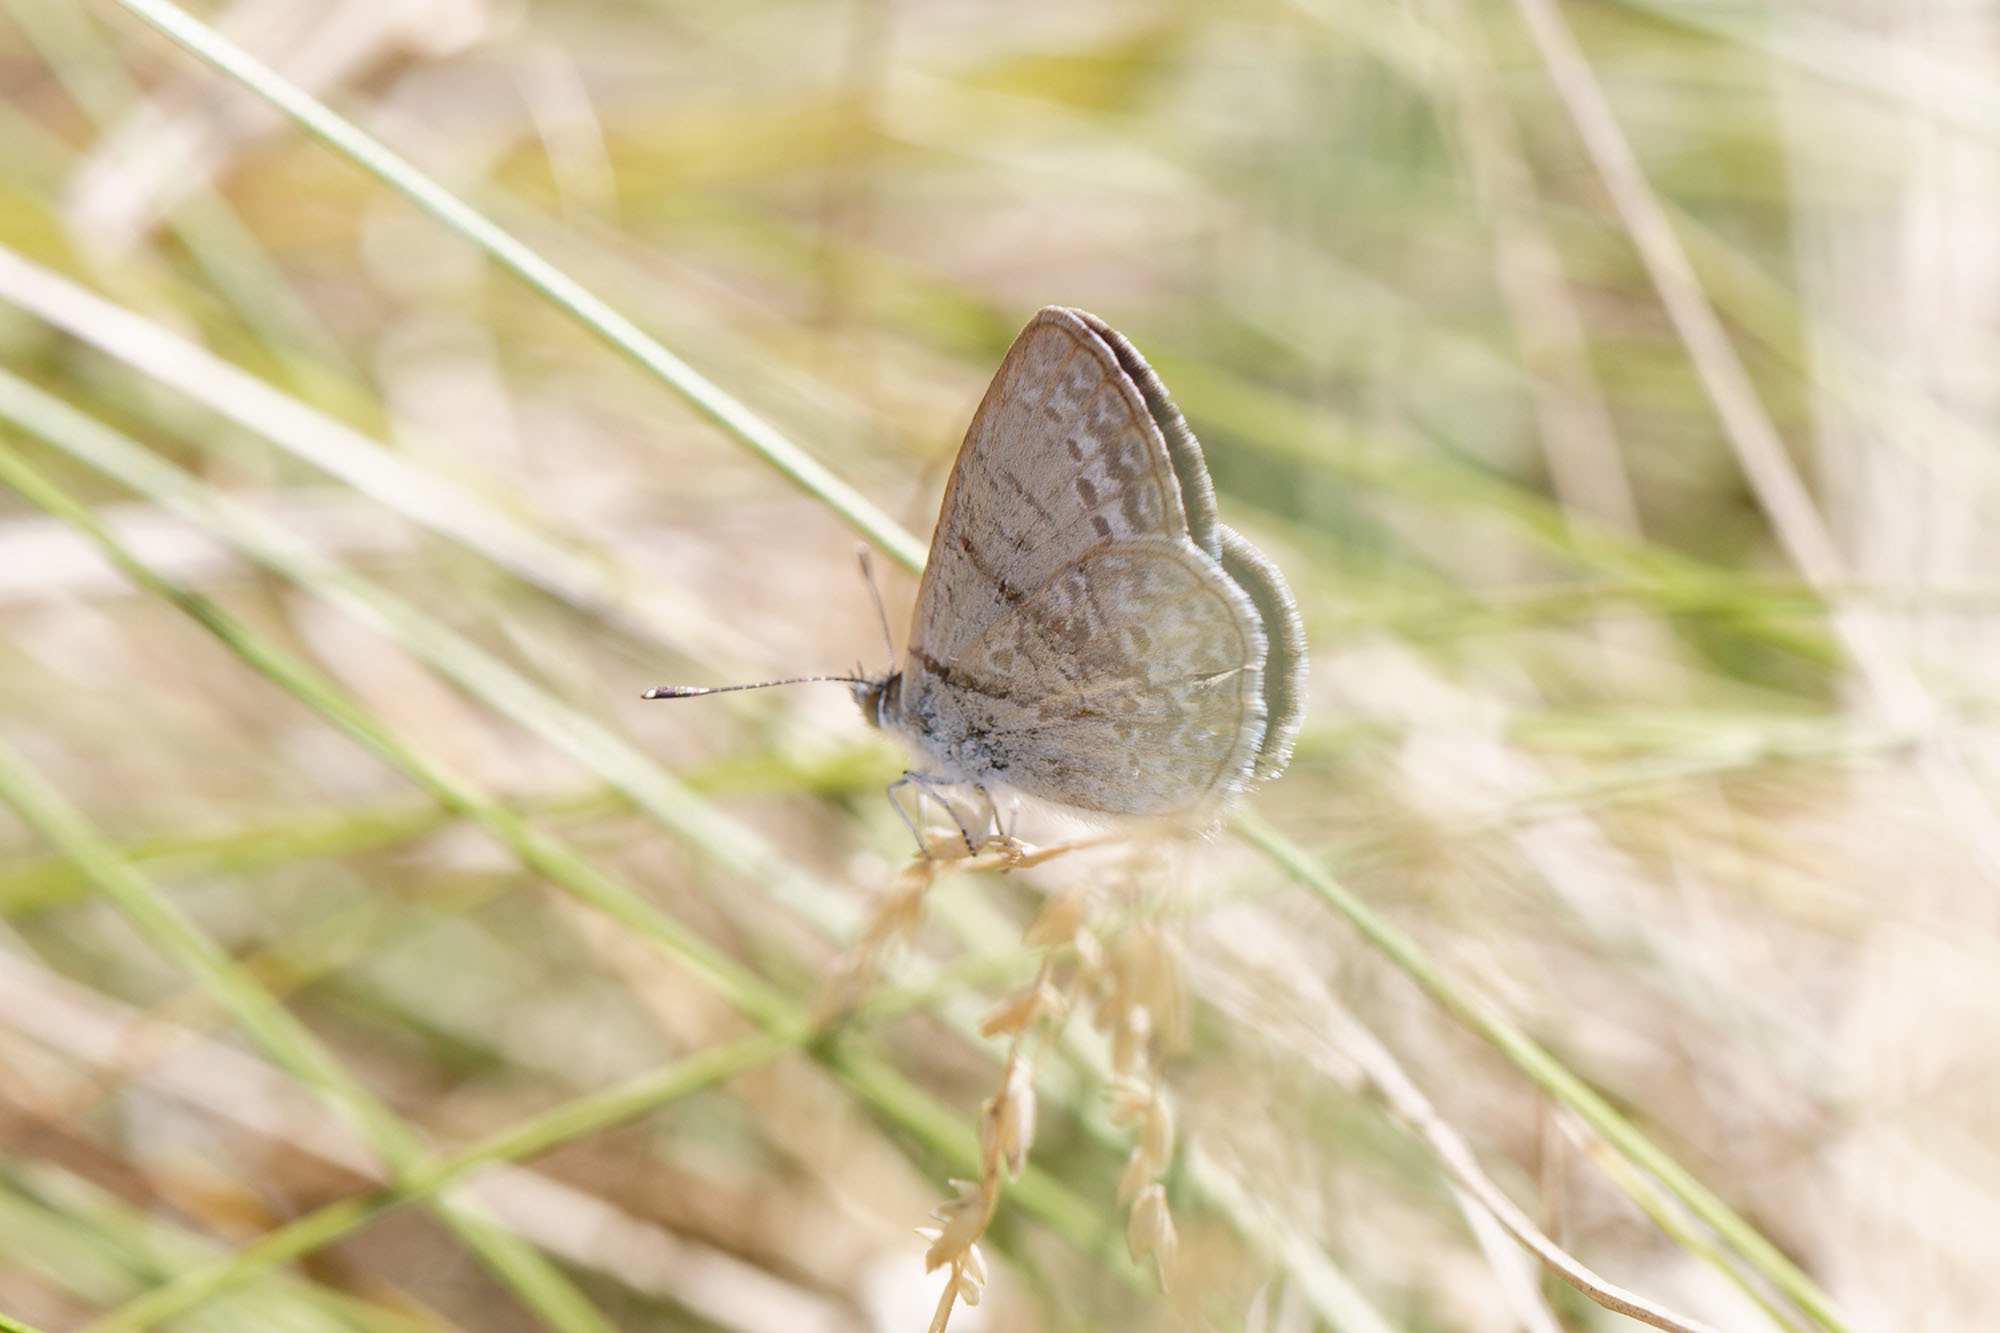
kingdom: Animalia
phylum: Arthropoda
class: Insecta
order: Lepidoptera
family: Lycaenidae
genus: Zizina
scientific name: Zizina labradus
